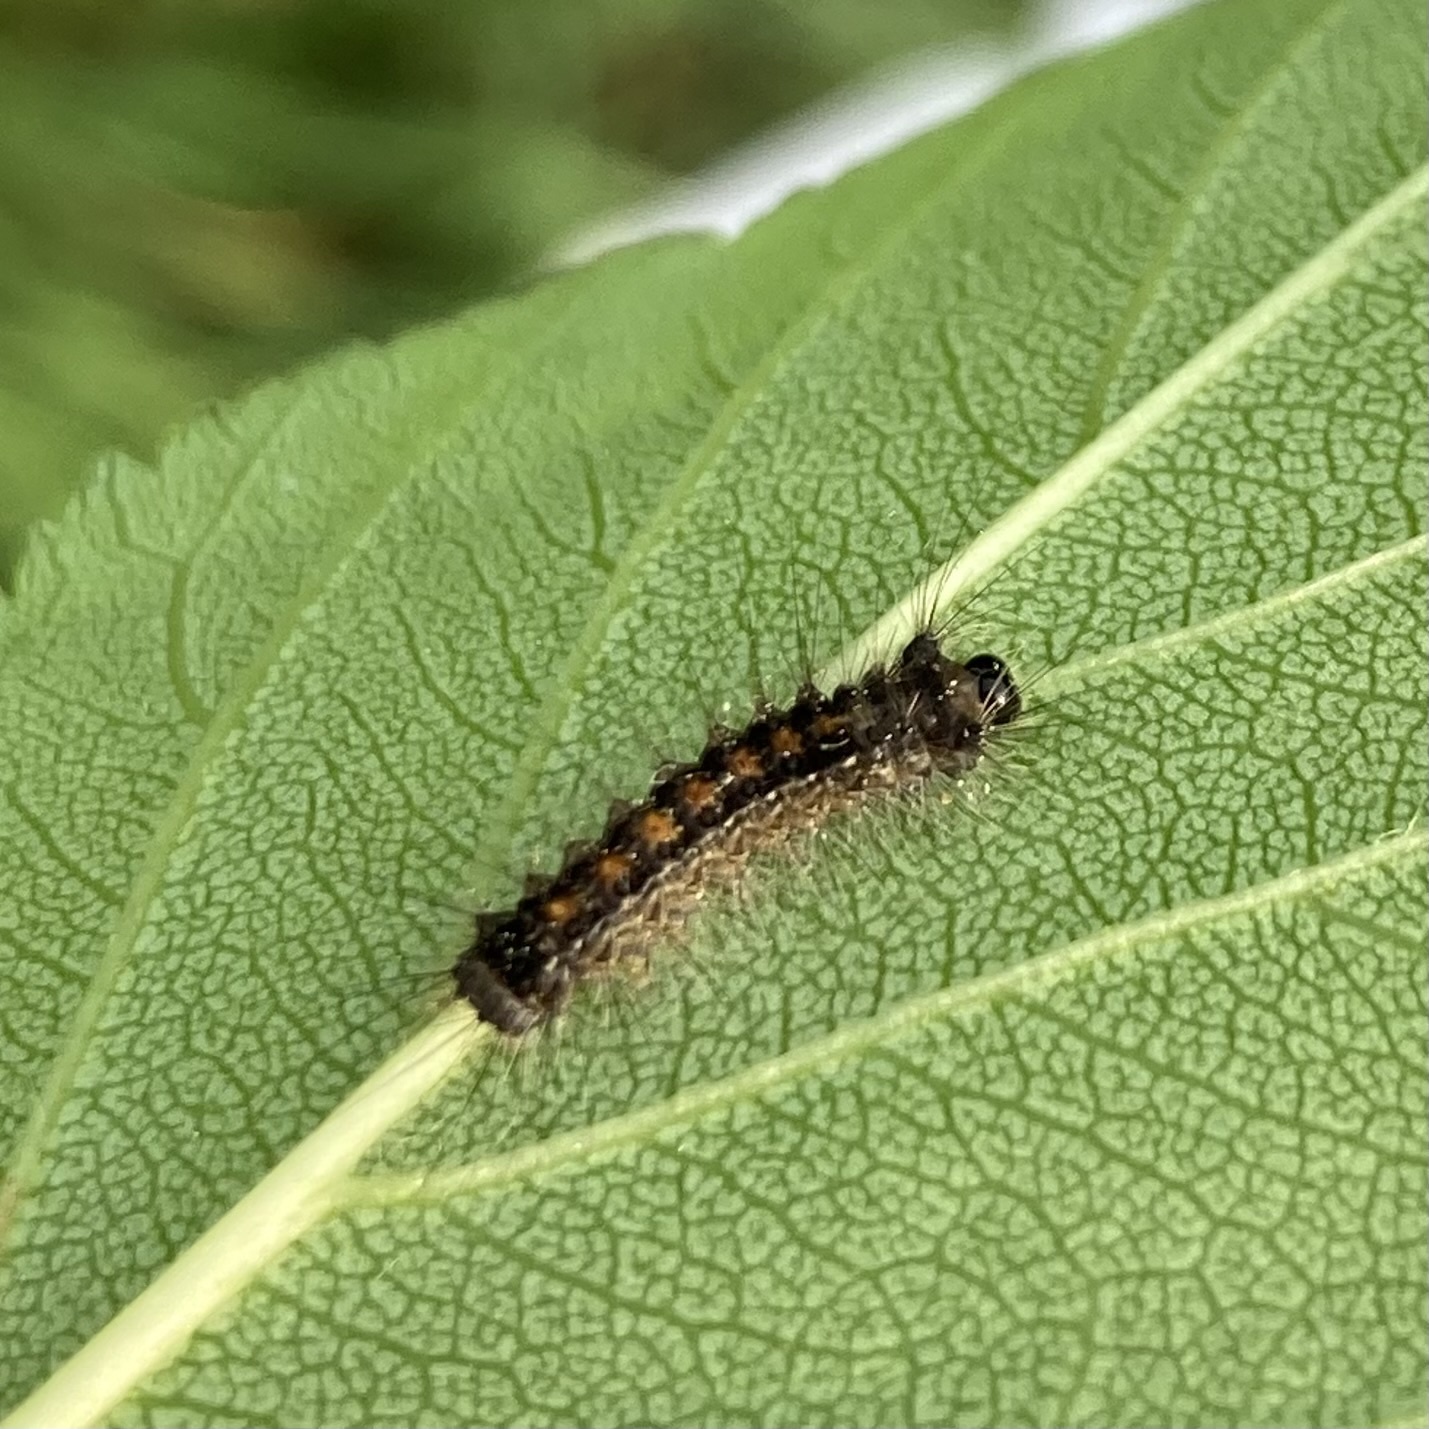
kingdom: Animalia
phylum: Arthropoda
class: Insecta
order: Lepidoptera
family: Erebidae
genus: Lymantria
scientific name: Lymantria dispar
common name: Gypsy moth
